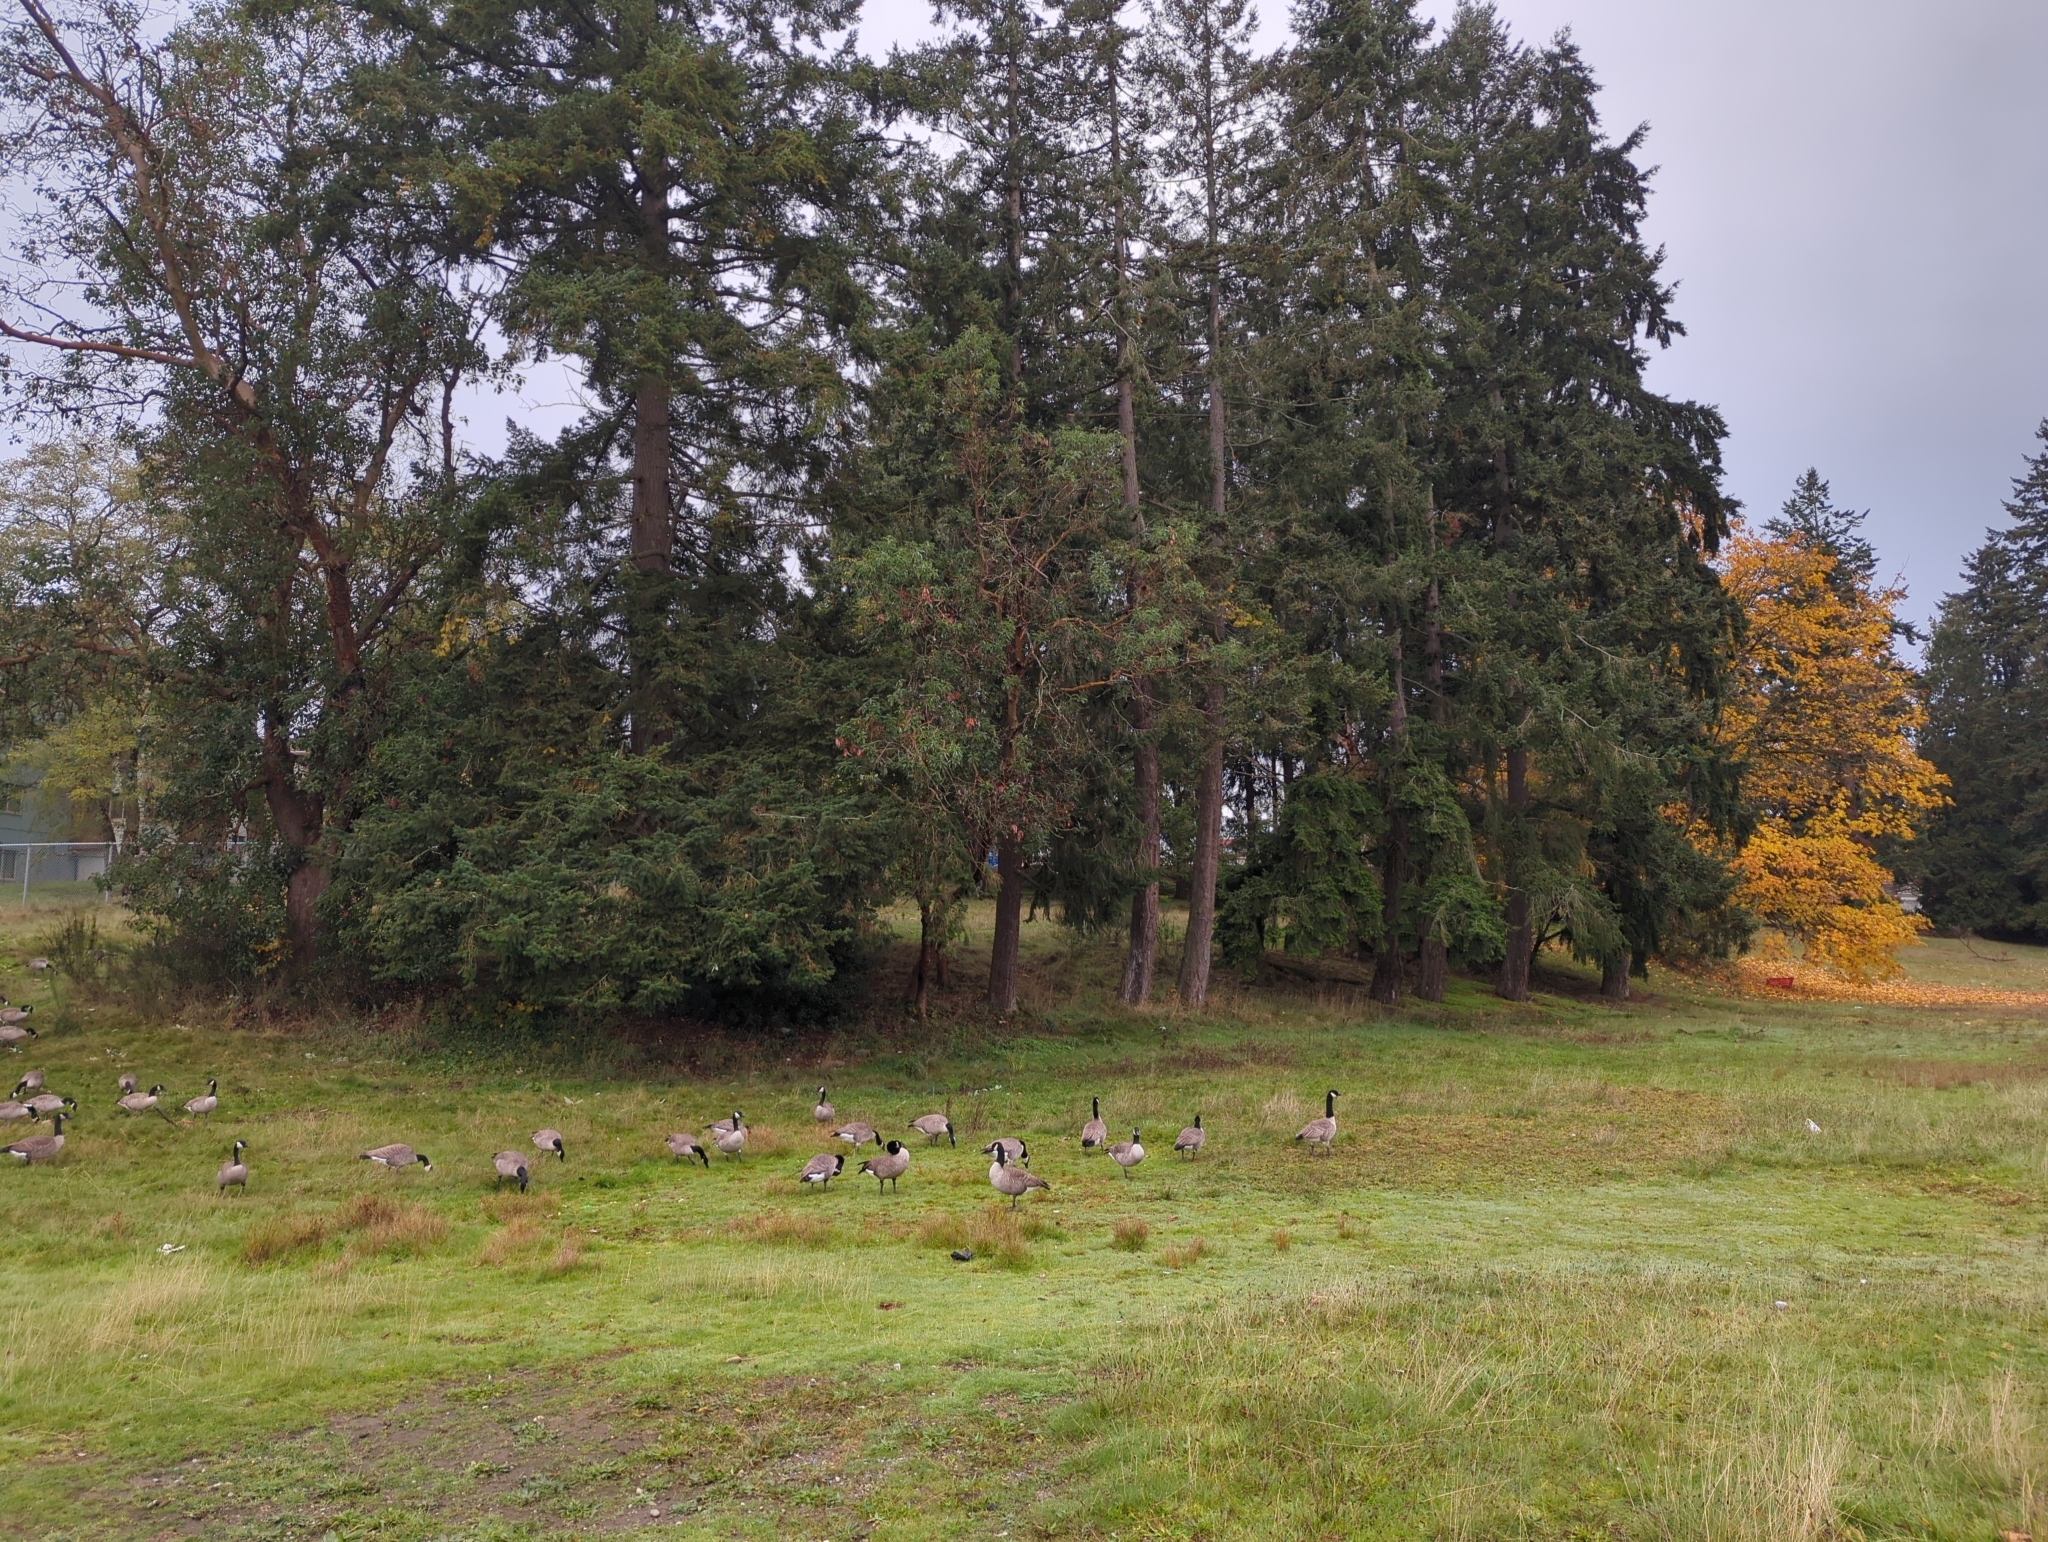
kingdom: Animalia
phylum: Chordata
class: Aves
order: Anseriformes
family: Anatidae
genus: Branta
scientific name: Branta canadensis
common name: Canada goose
